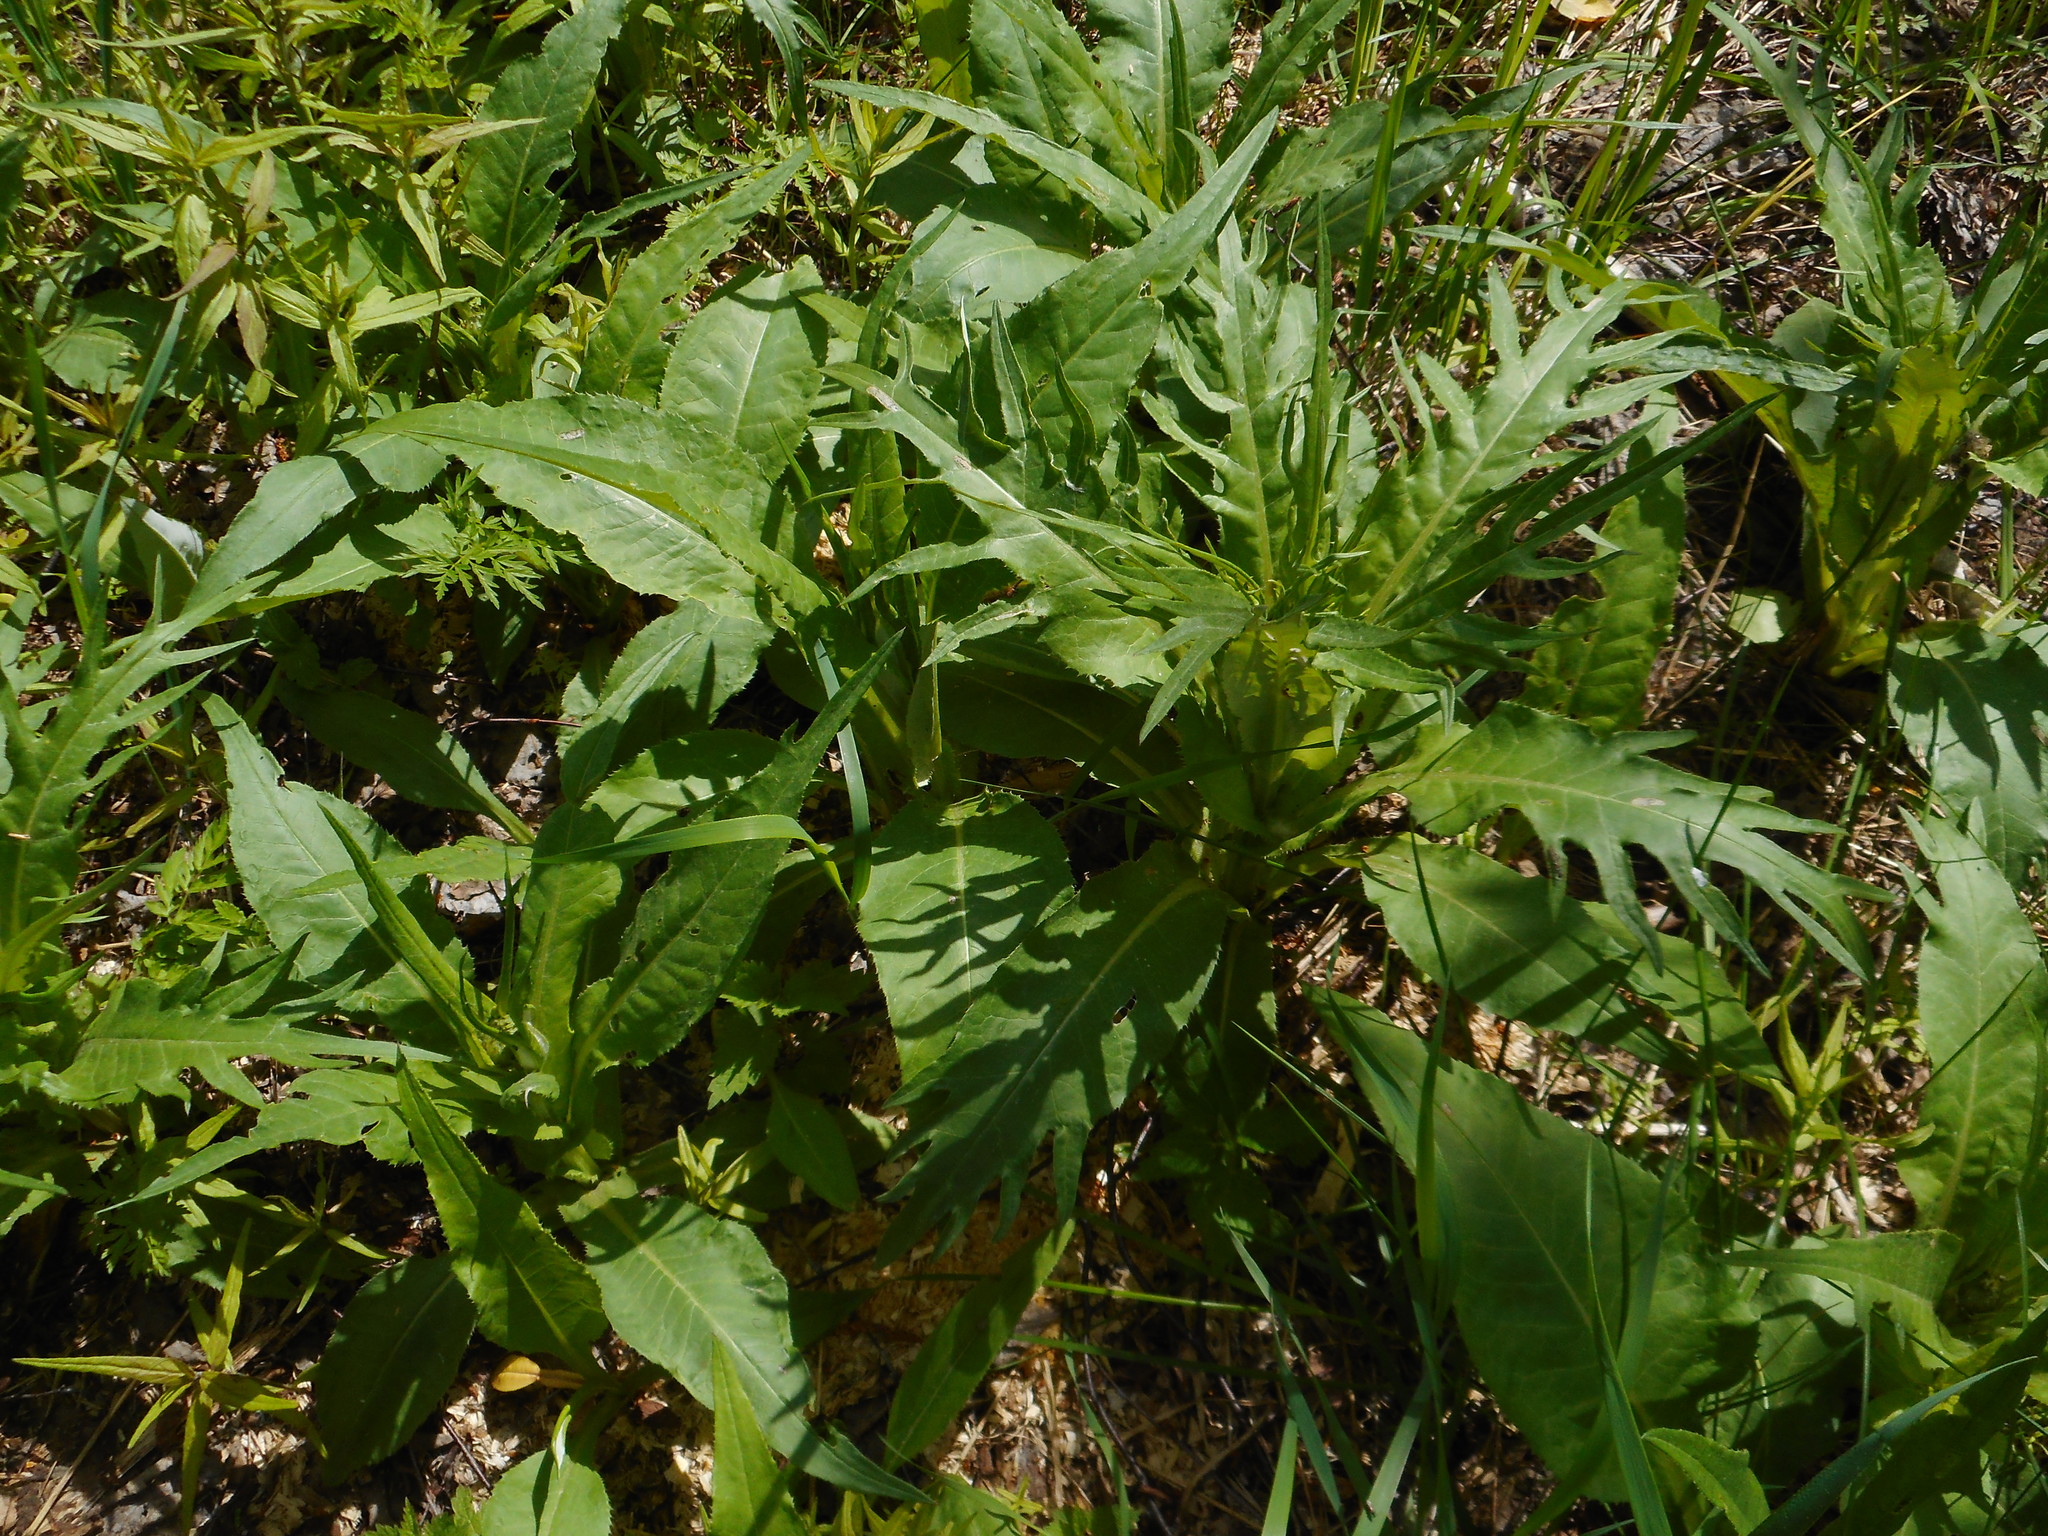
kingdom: Plantae
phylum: Tracheophyta
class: Magnoliopsida
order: Asterales
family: Asteraceae
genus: Cirsium
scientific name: Cirsium heterophyllum
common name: Melancholy thistle
